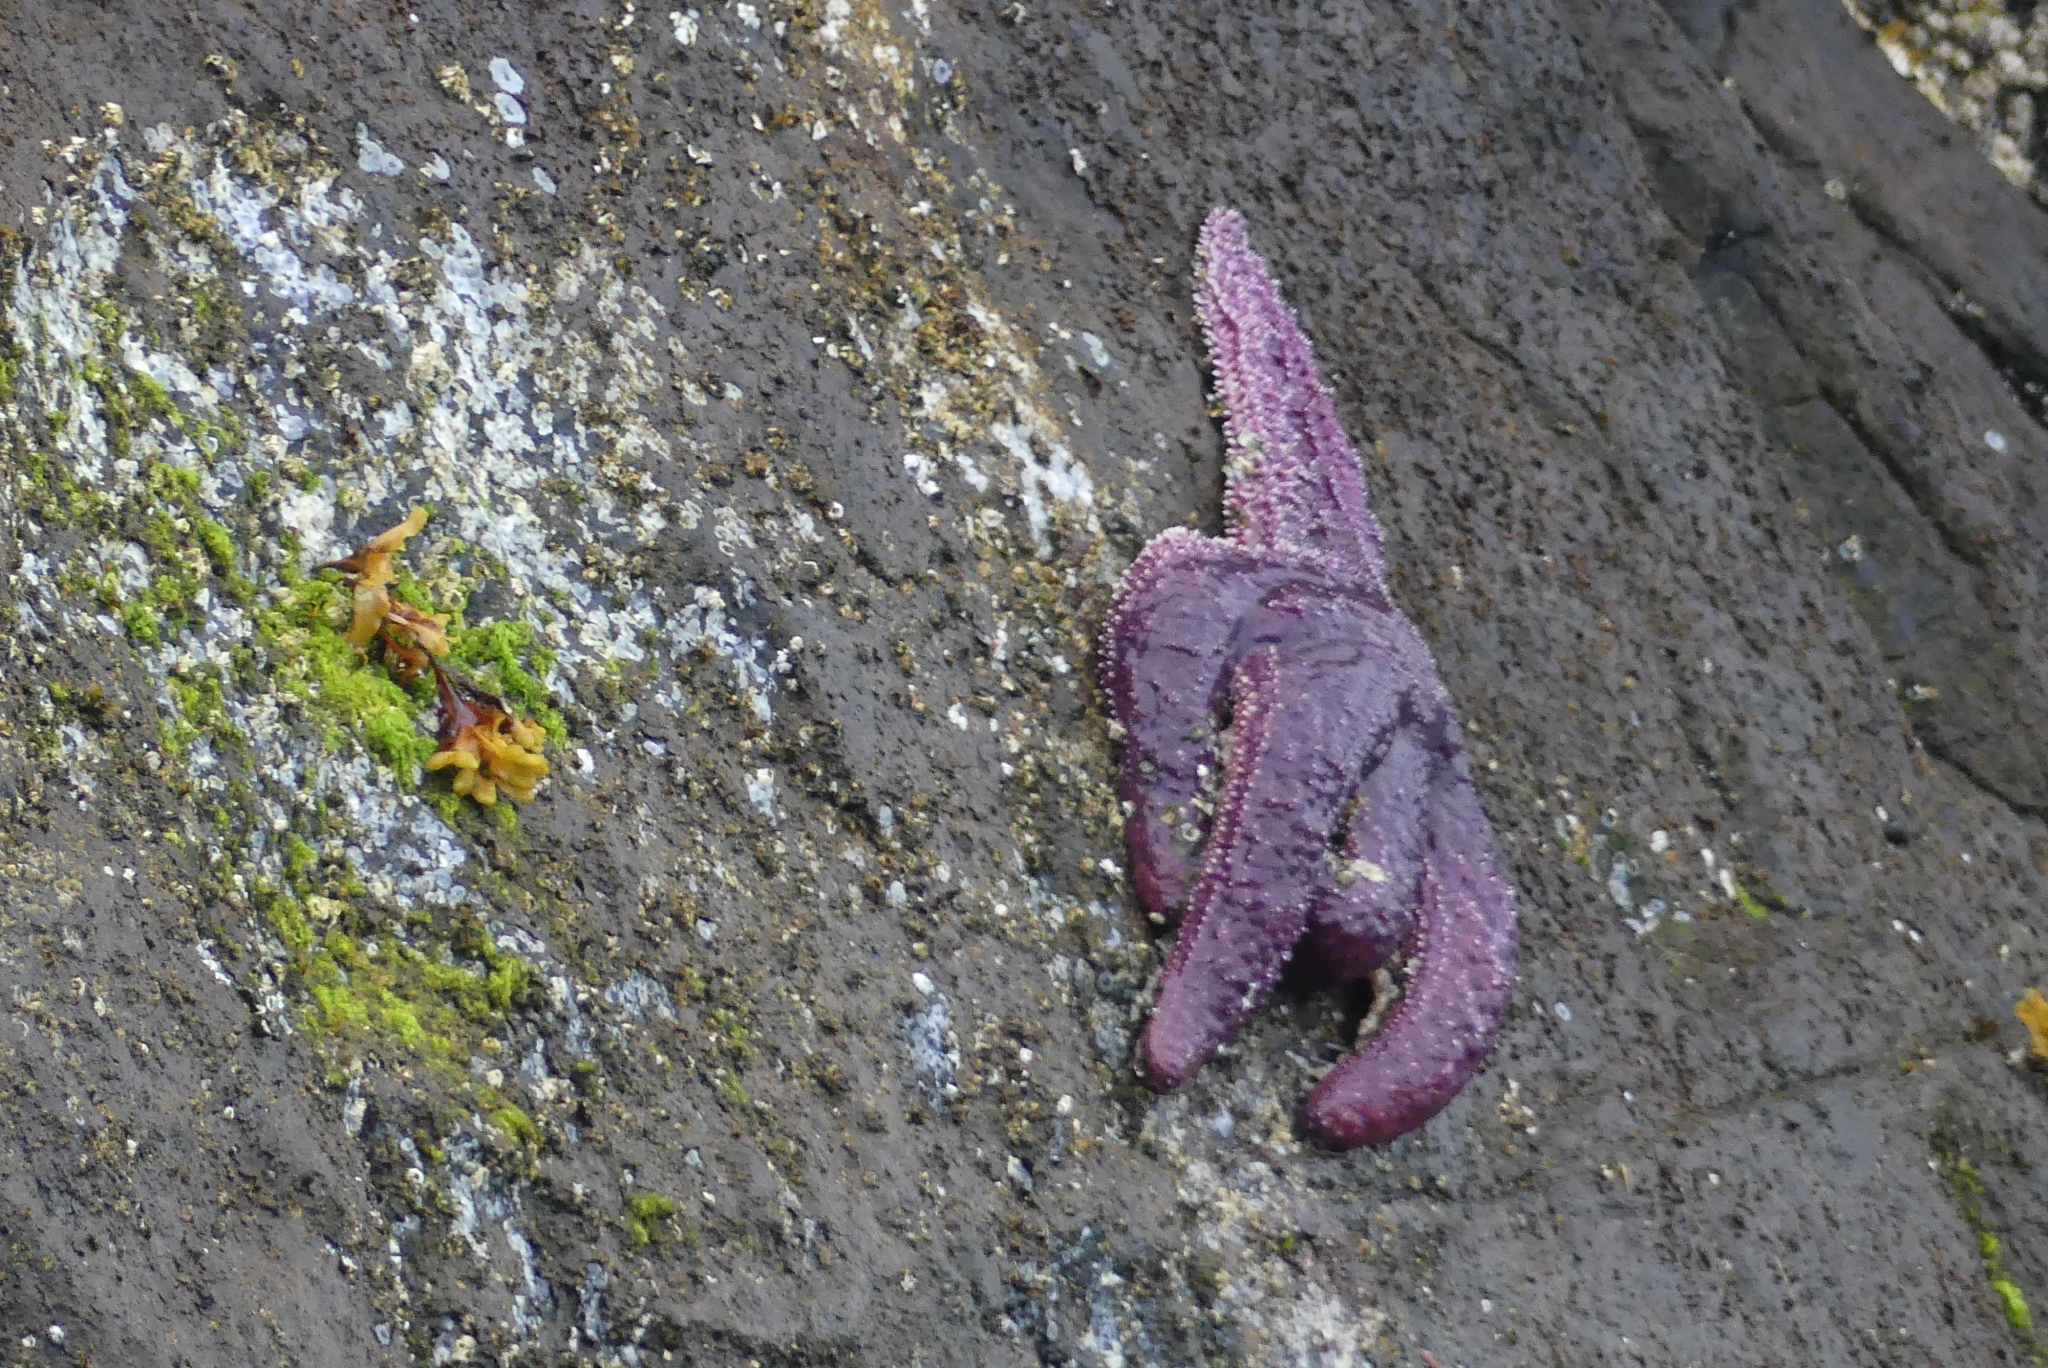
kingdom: Animalia
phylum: Echinodermata
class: Asteroidea
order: Forcipulatida
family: Asteriidae
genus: Pisaster
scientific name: Pisaster ochraceus
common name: Ochre stars
